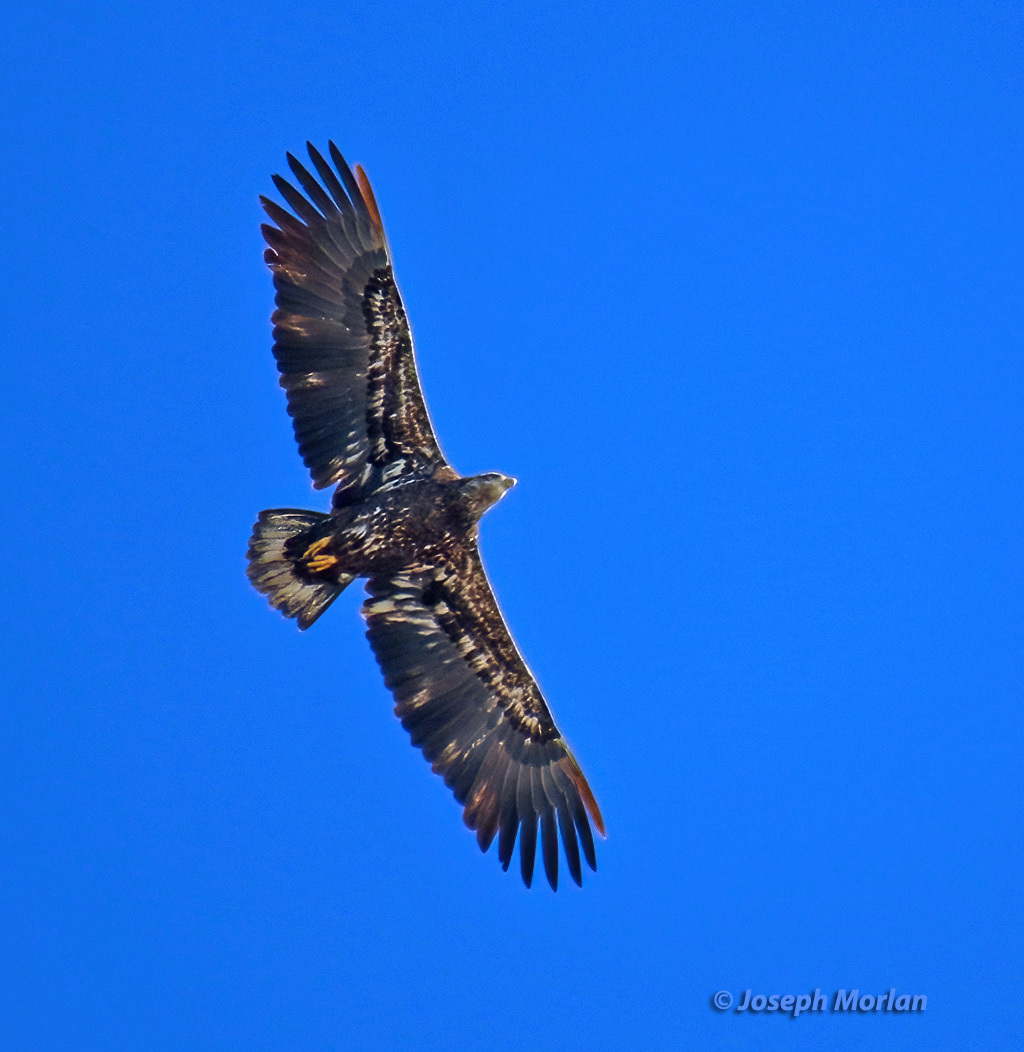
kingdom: Animalia
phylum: Chordata
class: Aves
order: Accipitriformes
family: Accipitridae
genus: Haliaeetus
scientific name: Haliaeetus leucocephalus
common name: Bald eagle
